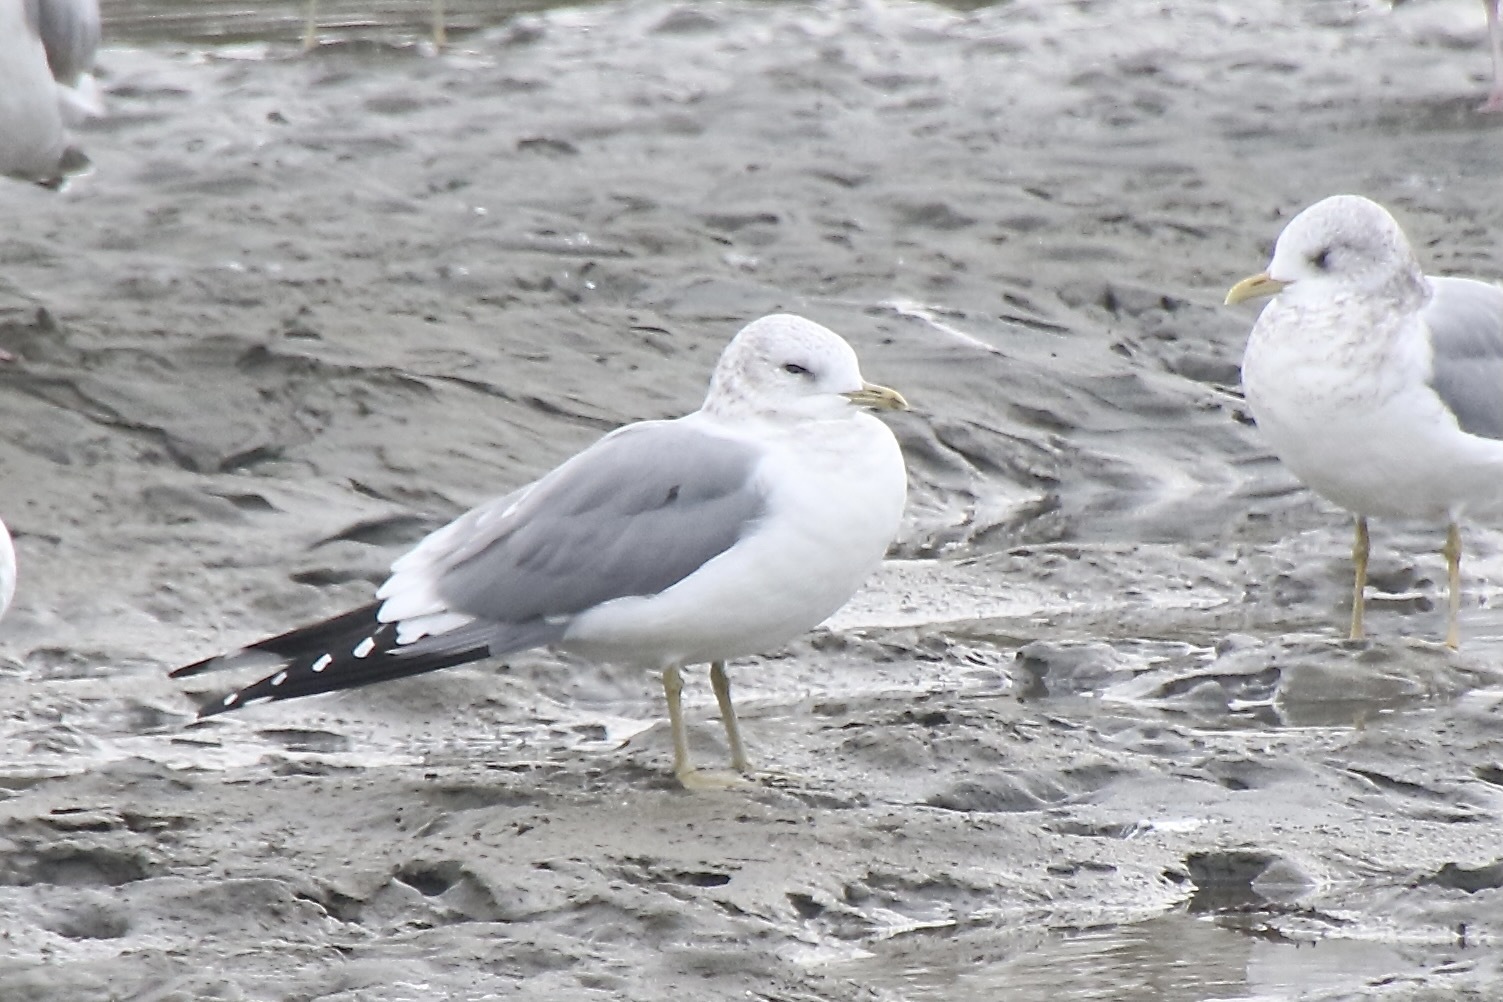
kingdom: Animalia
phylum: Chordata
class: Aves
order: Charadriiformes
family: Laridae
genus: Larus
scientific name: Larus brachyrhynchus
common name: Short-billed gull
